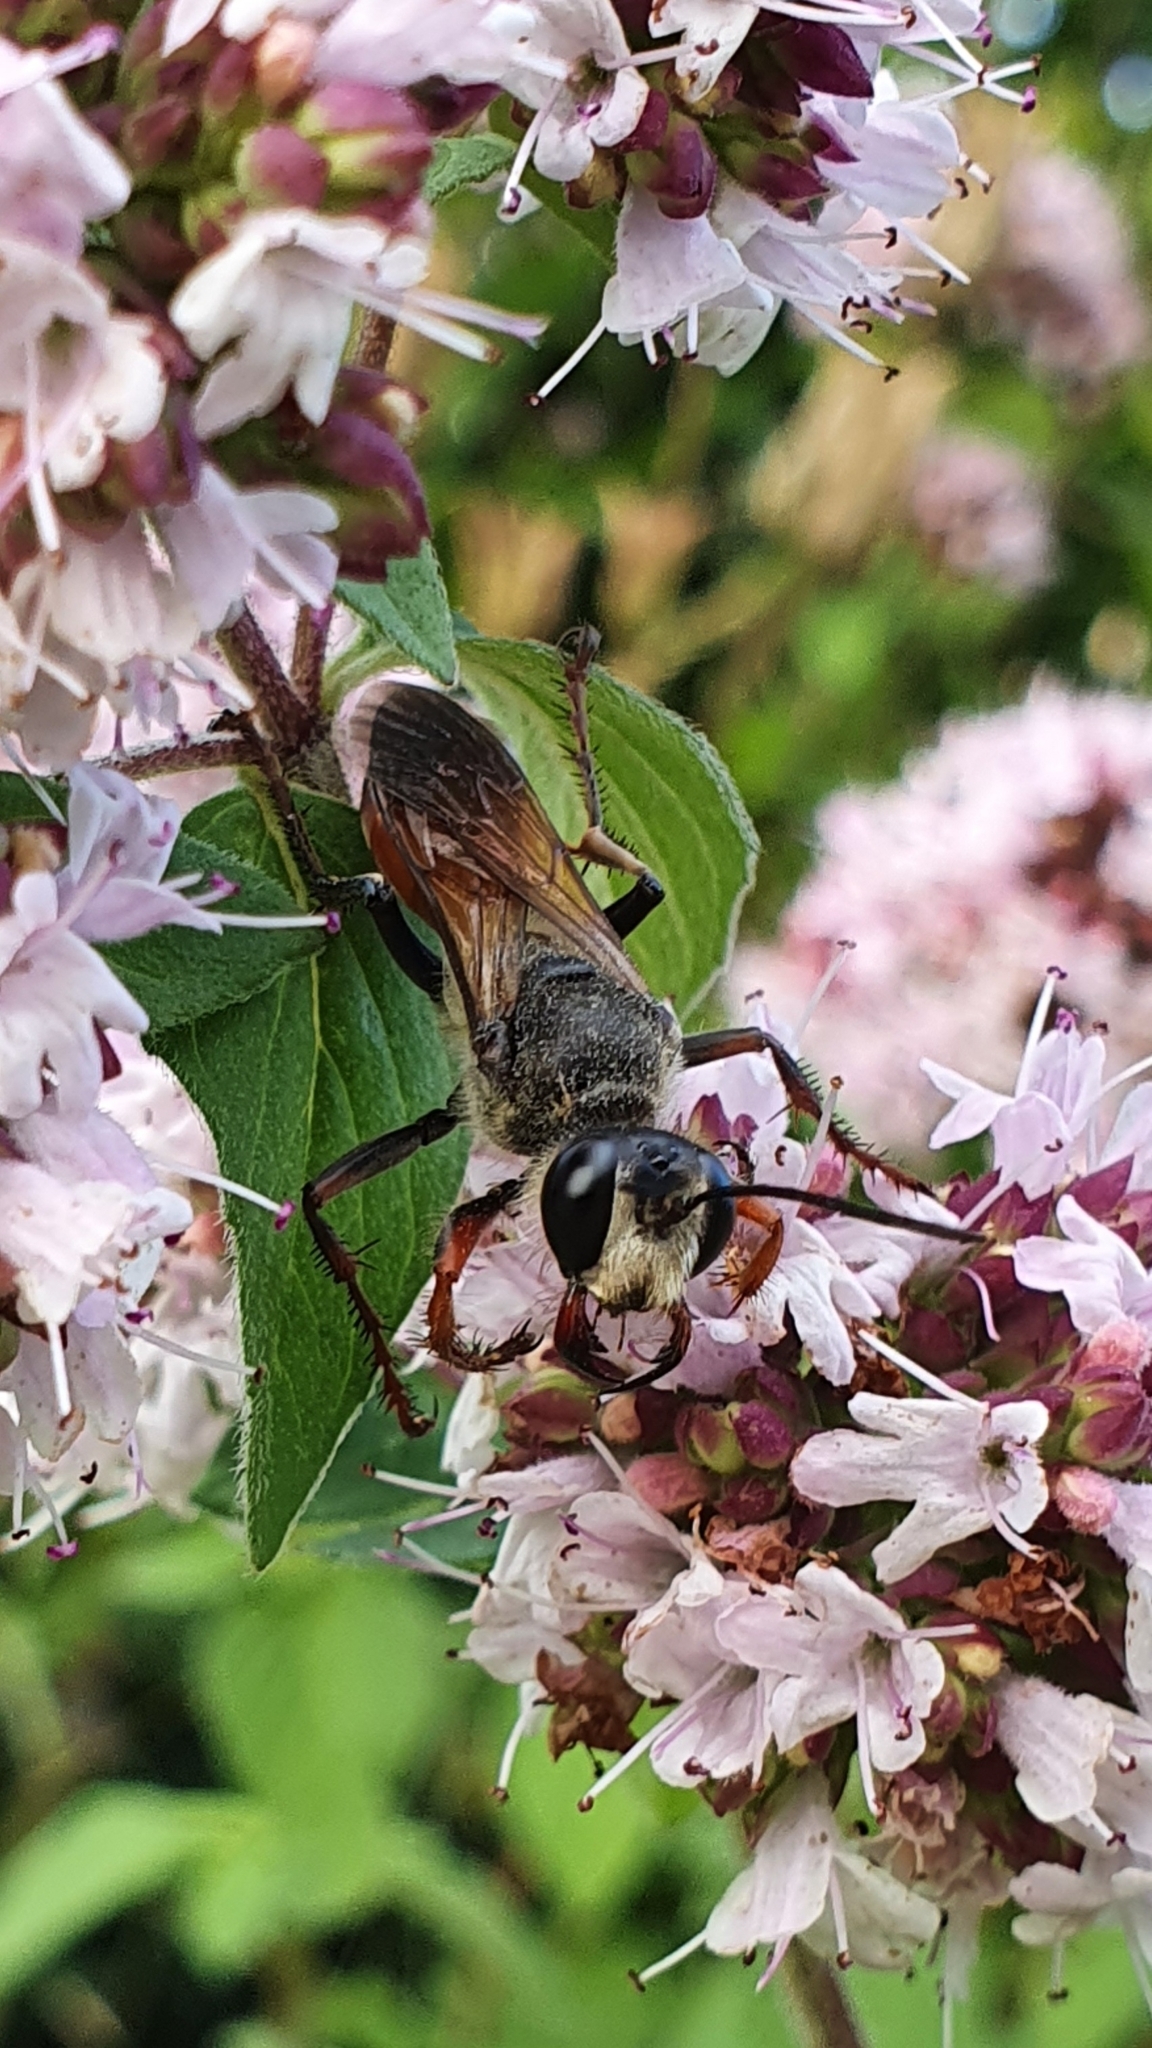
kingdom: Animalia
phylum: Arthropoda
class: Insecta
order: Hymenoptera
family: Sphecidae
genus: Sphex
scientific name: Sphex funerarius
